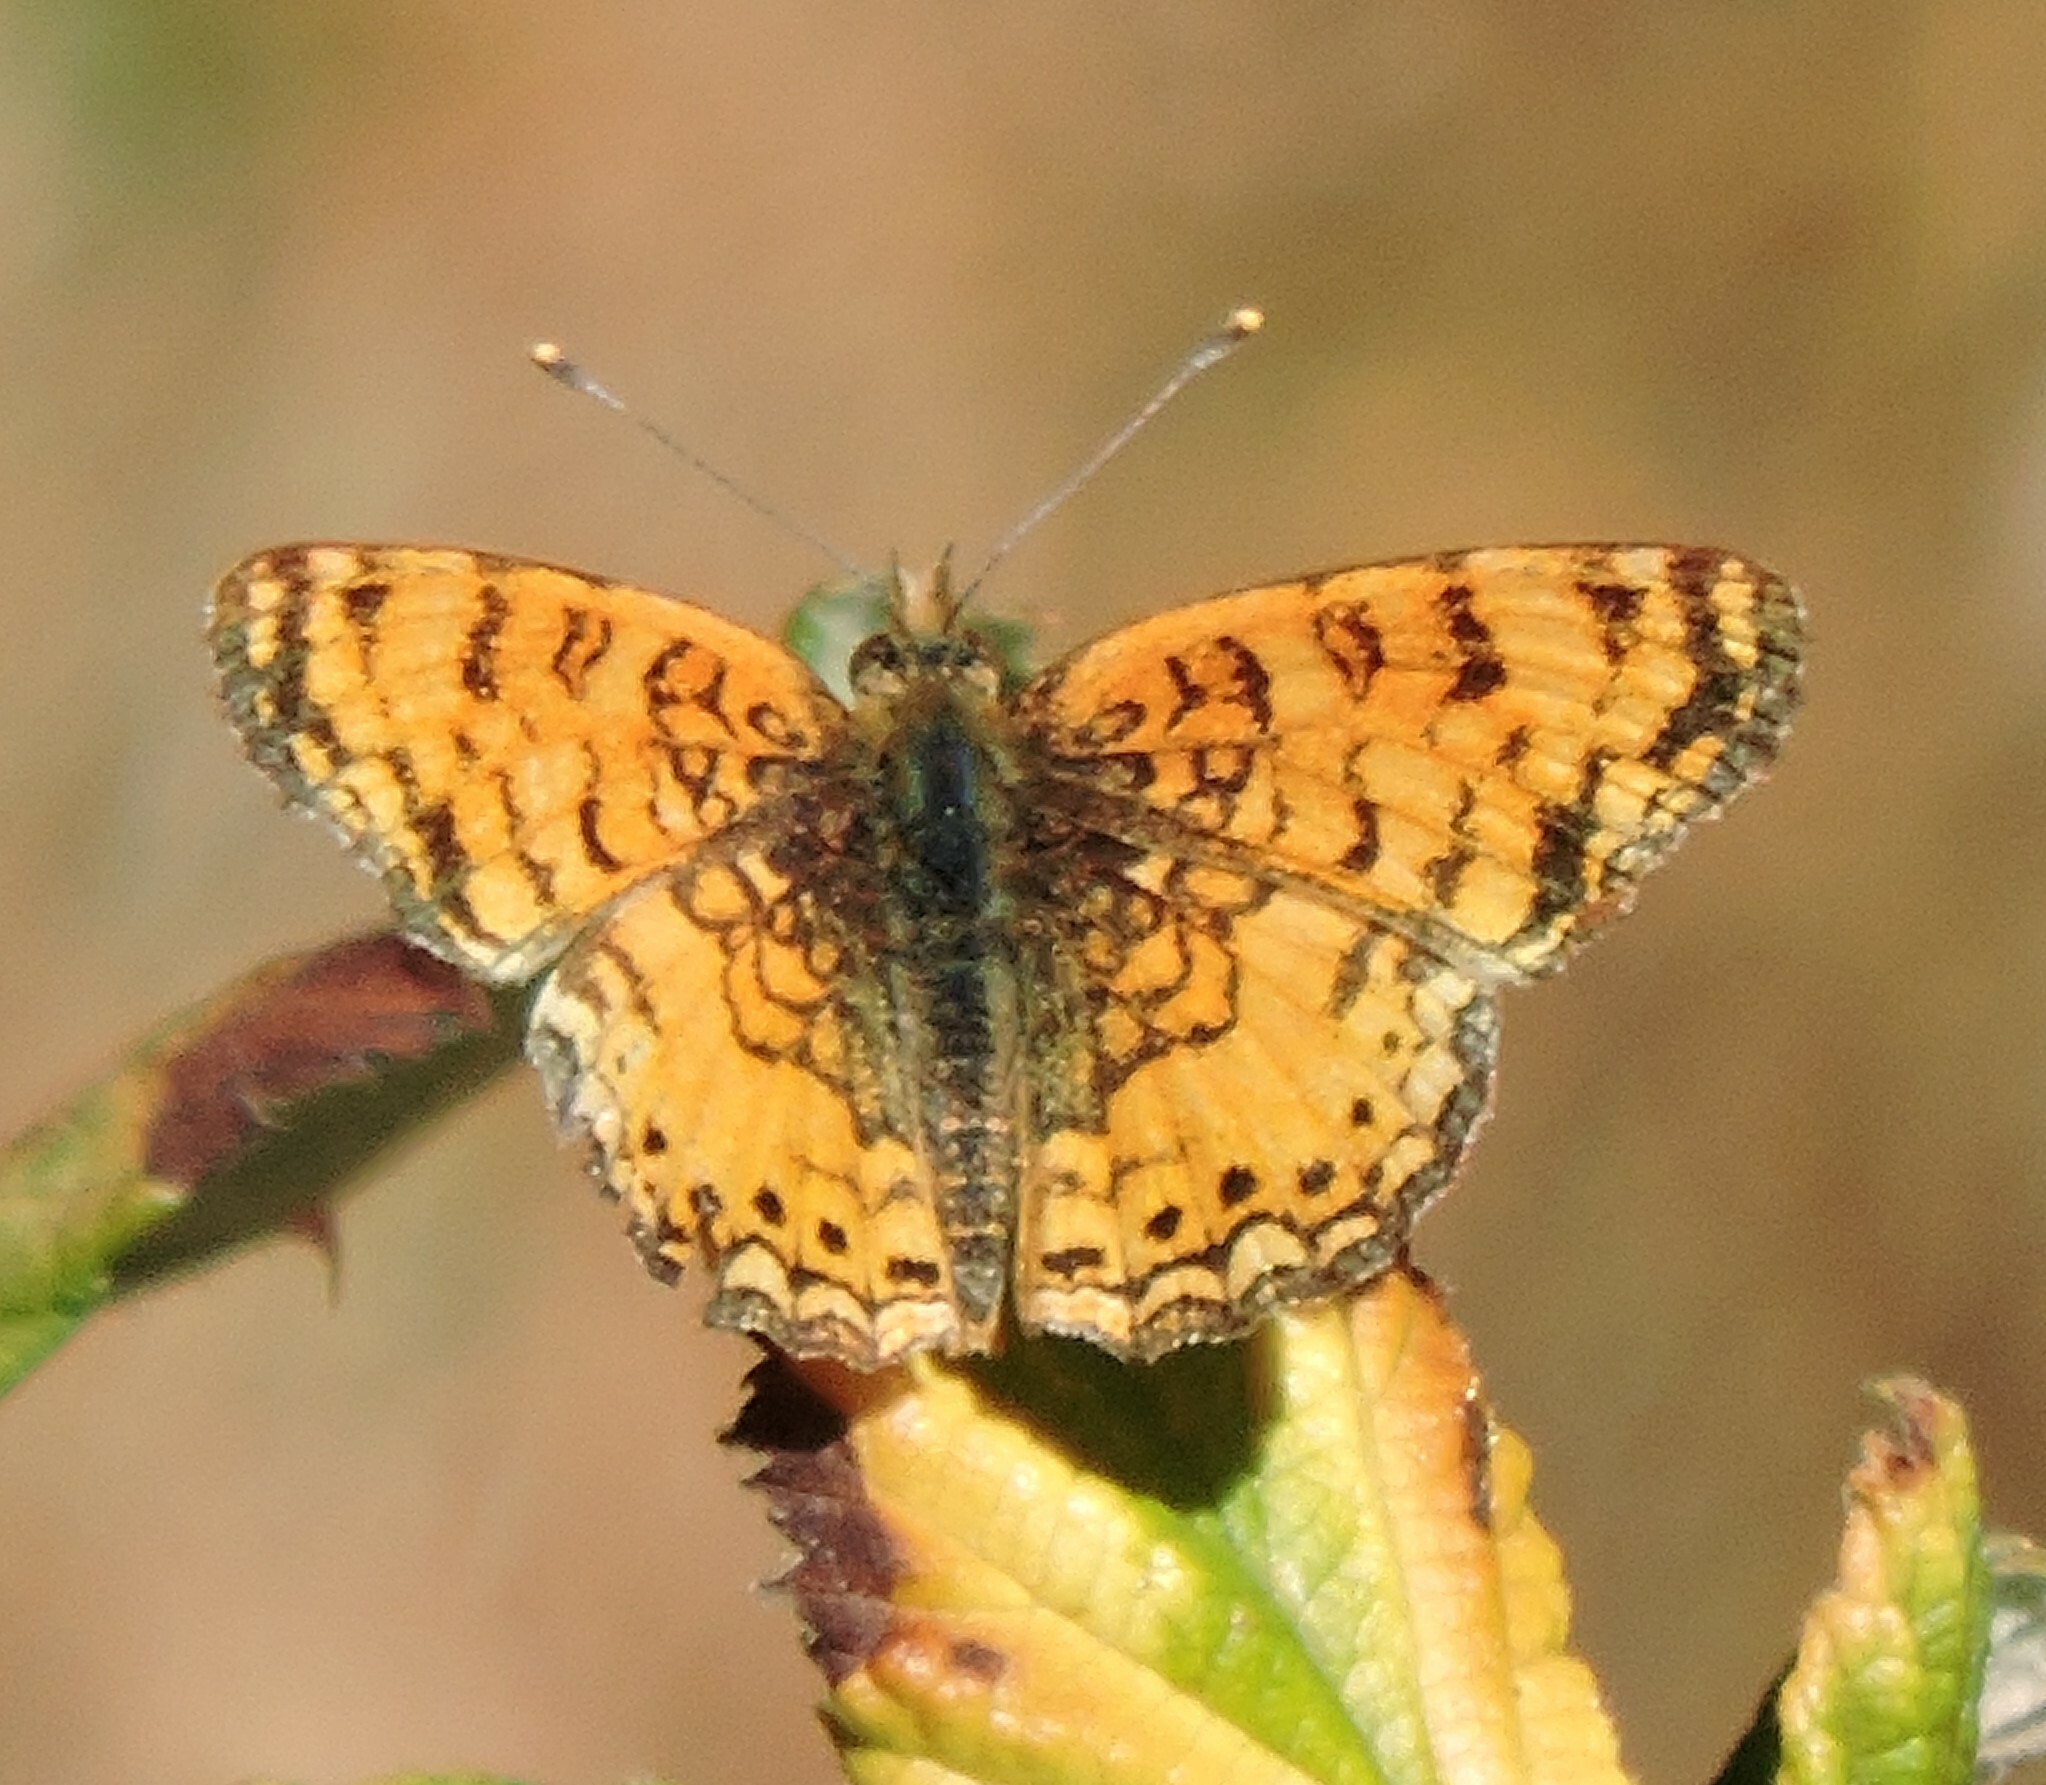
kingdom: Animalia
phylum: Arthropoda
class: Insecta
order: Lepidoptera
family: Nymphalidae
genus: Eresia
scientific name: Eresia aveyrona
